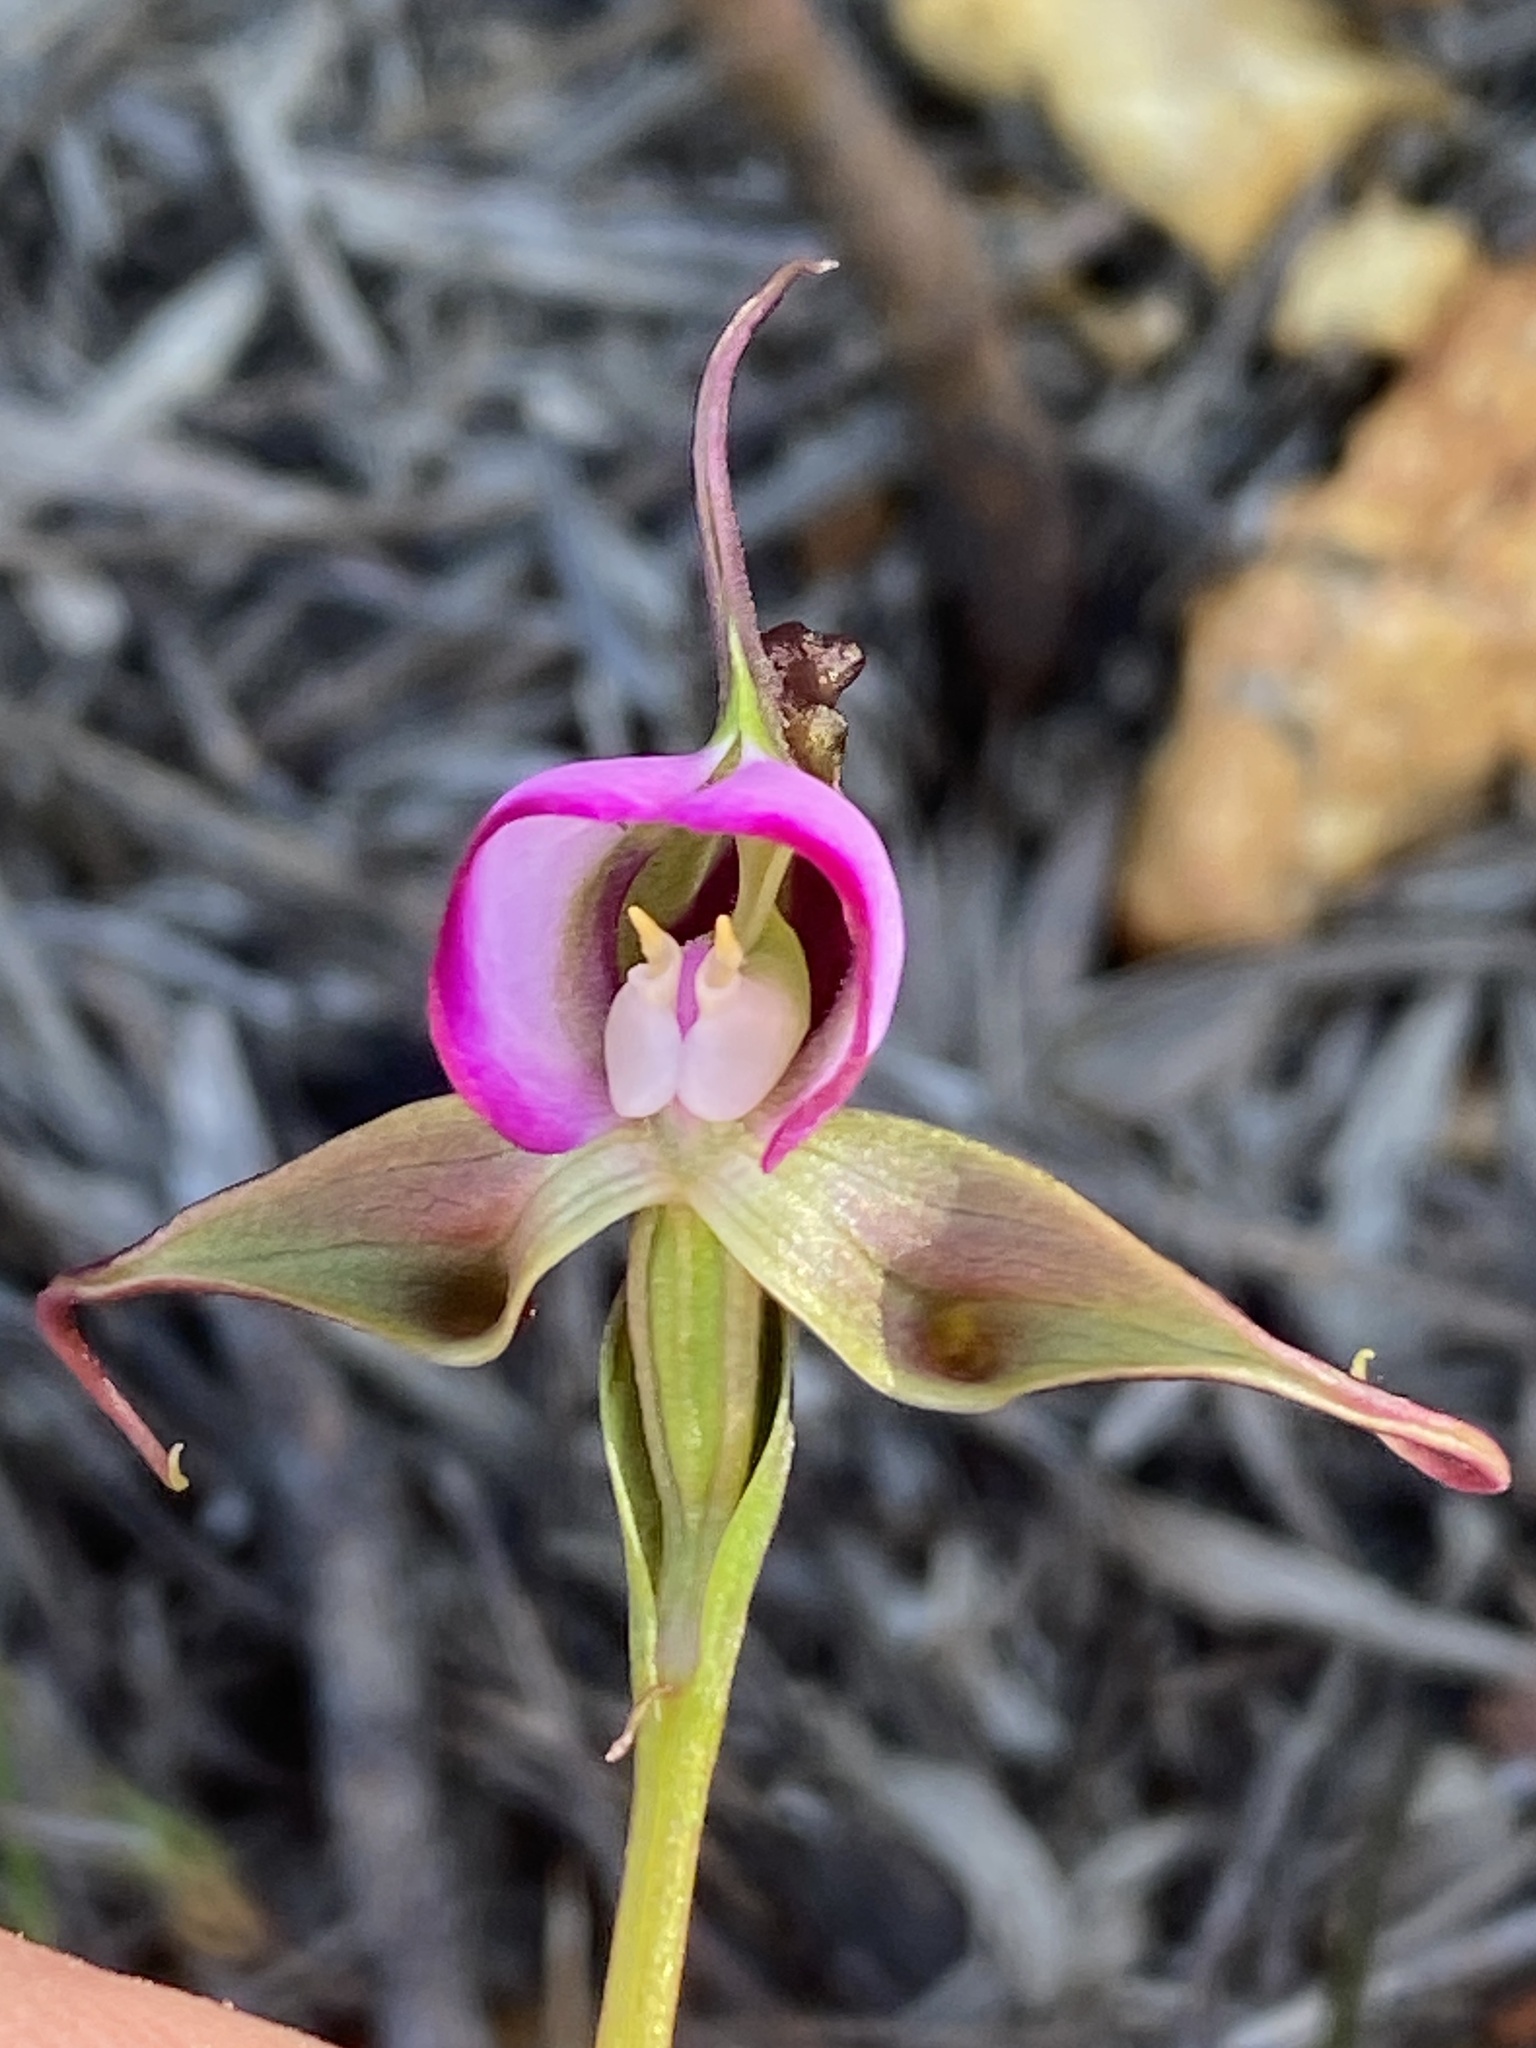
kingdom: Plantae
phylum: Tracheophyta
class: Liliopsida
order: Asparagales
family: Orchidaceae
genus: Disperis
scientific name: Disperis capensis
